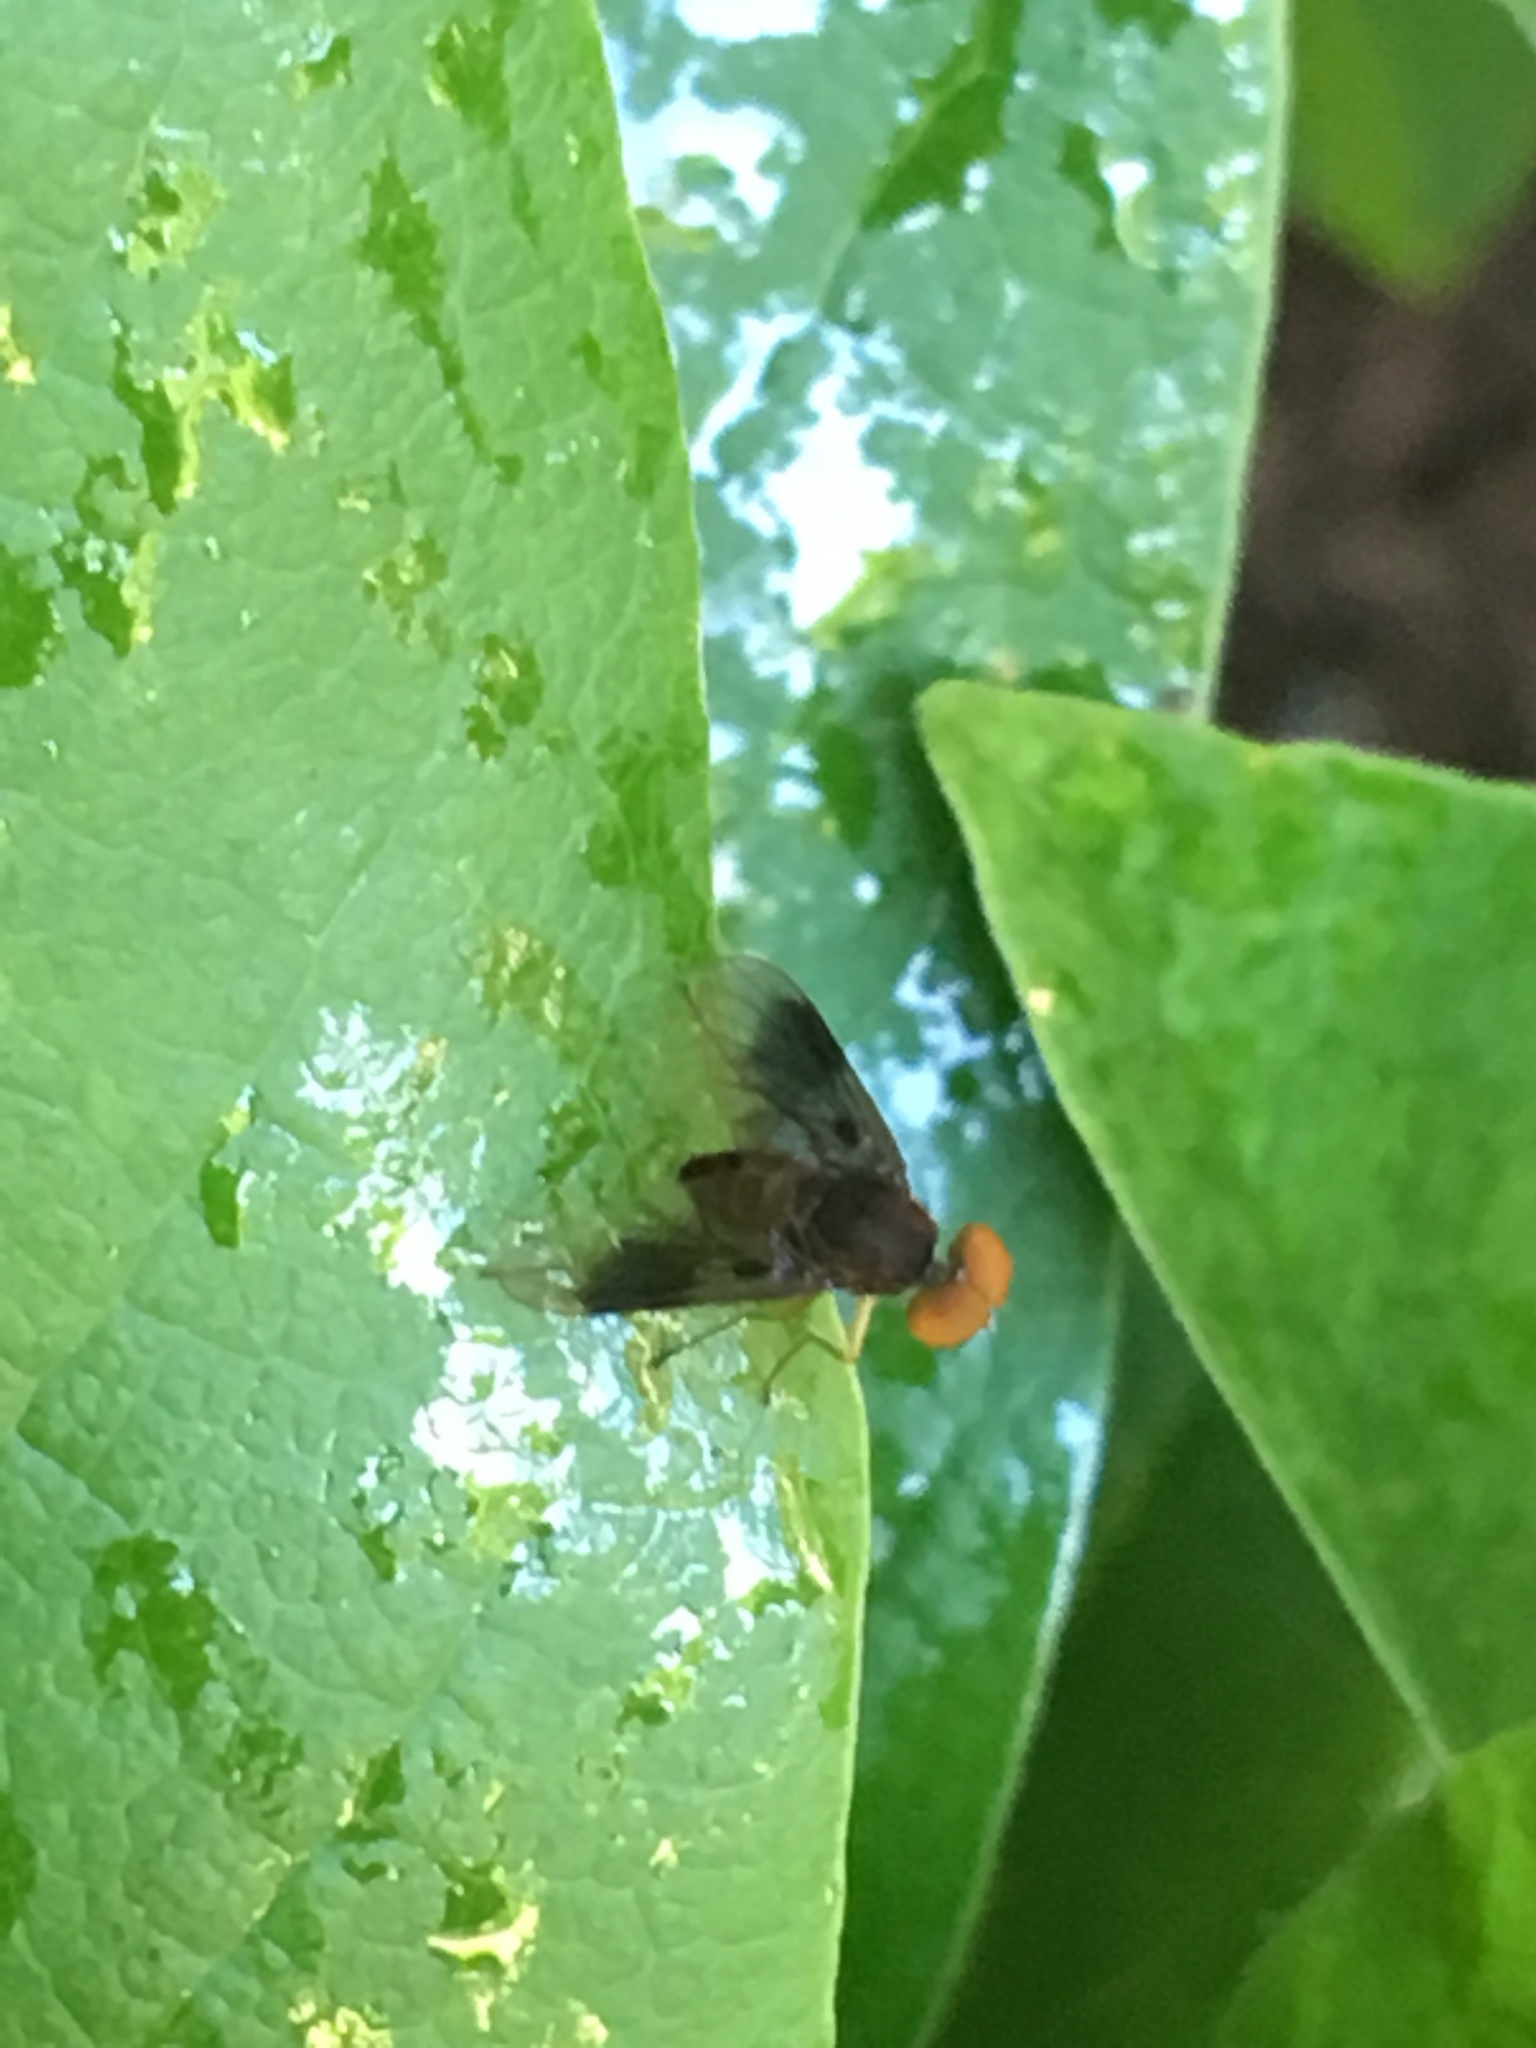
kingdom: Animalia
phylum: Arthropoda
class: Insecta
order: Diptera
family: Rhagionidae
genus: Chrysopilus
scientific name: Chrysopilus quadratus
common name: Quadrate snipe fly
